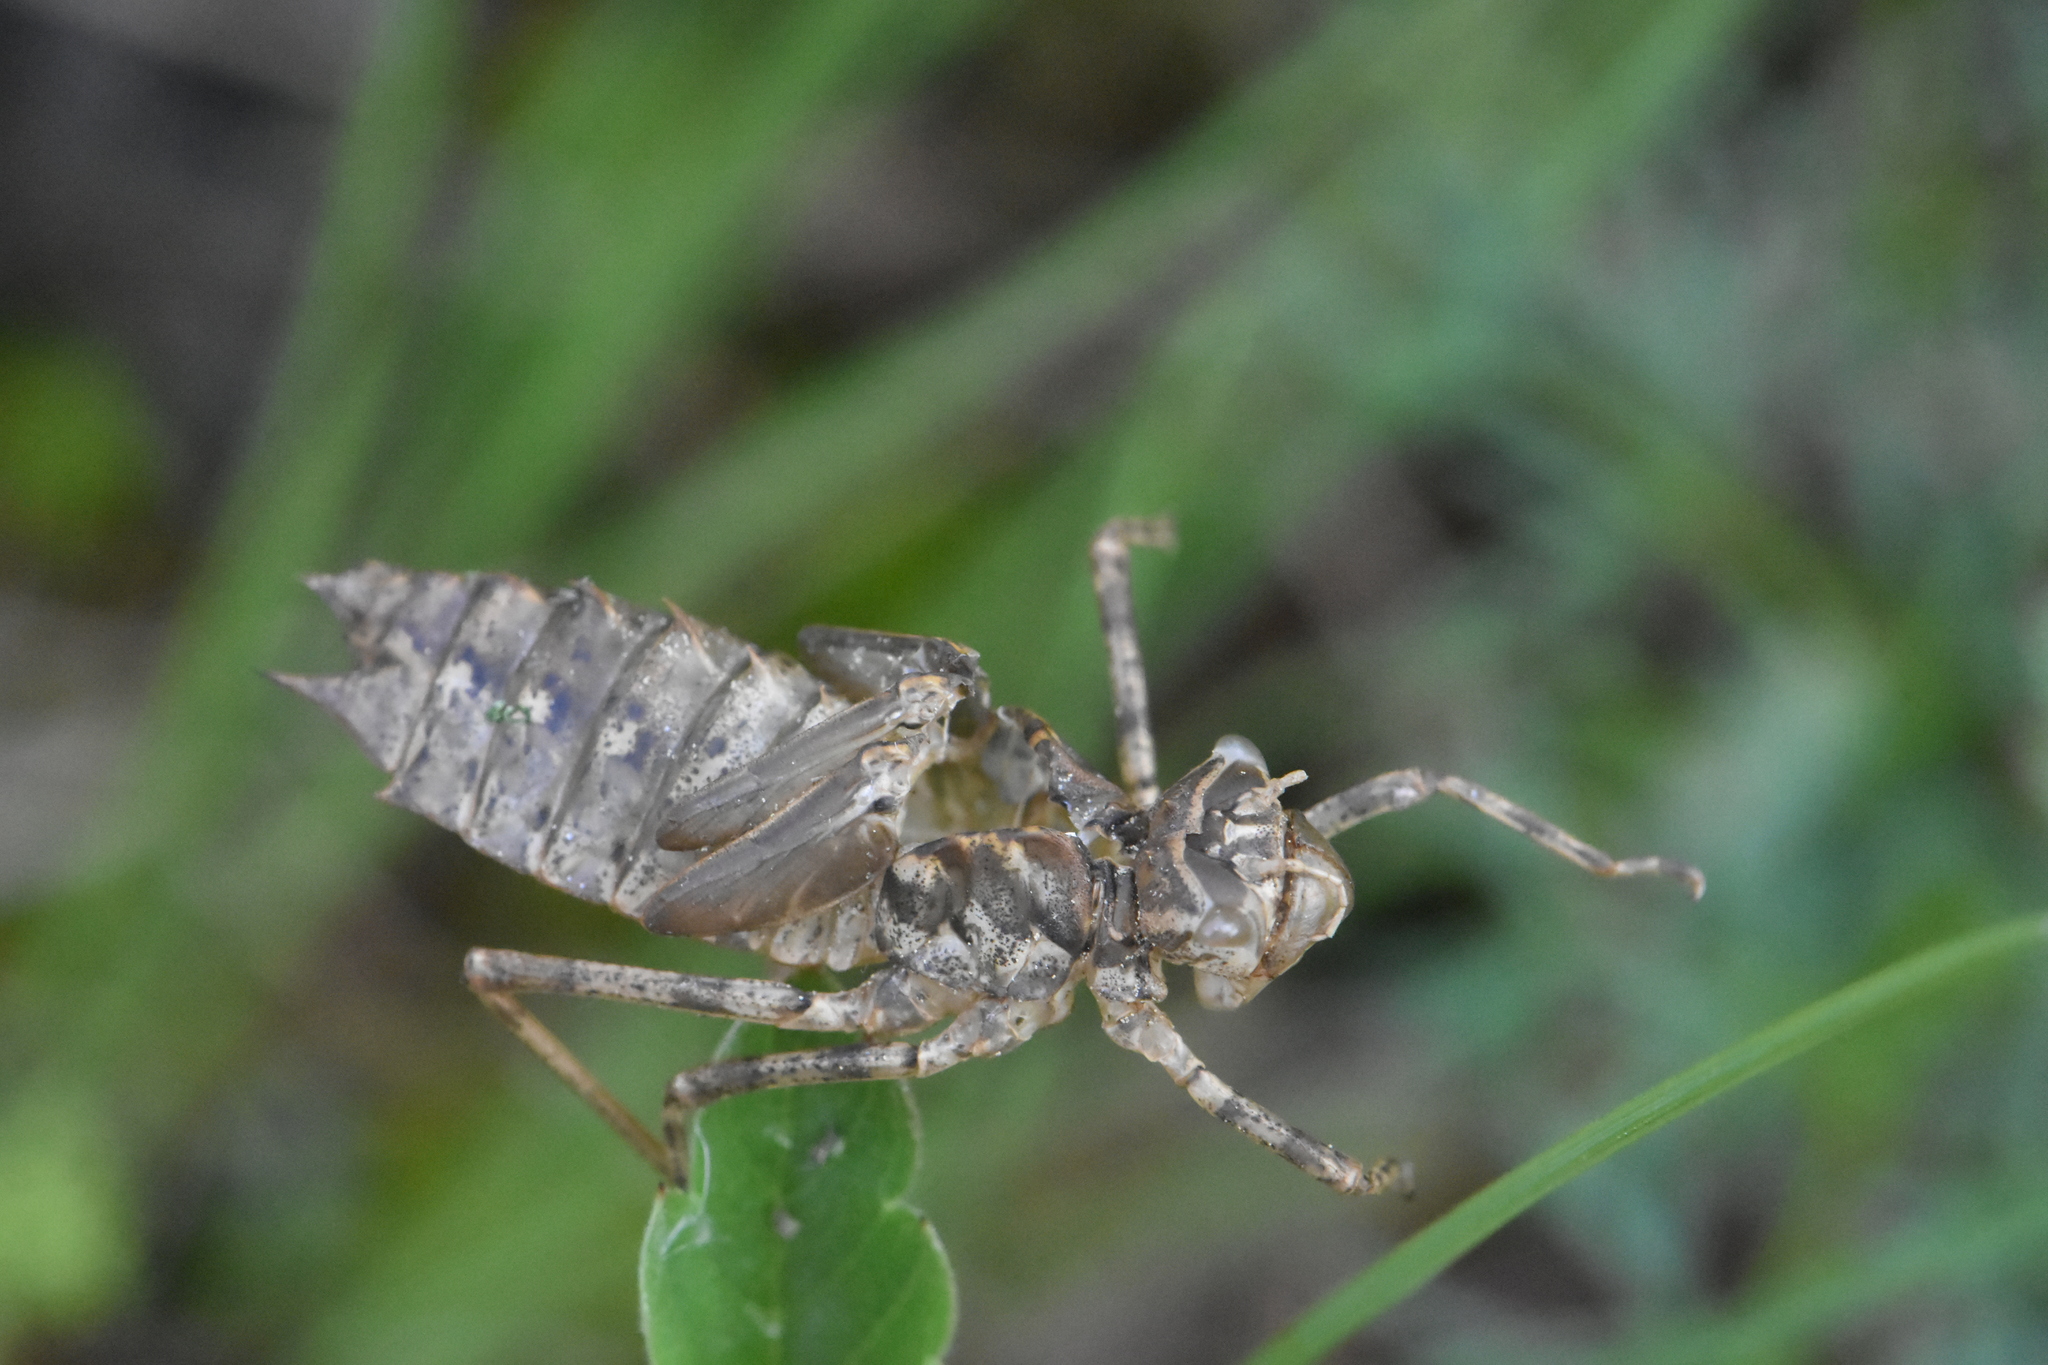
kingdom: Animalia
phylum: Arthropoda
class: Insecta
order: Odonata
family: Corduliidae
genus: Epitheca
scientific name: Epitheca bimaculata
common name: Eurasian baskettail
